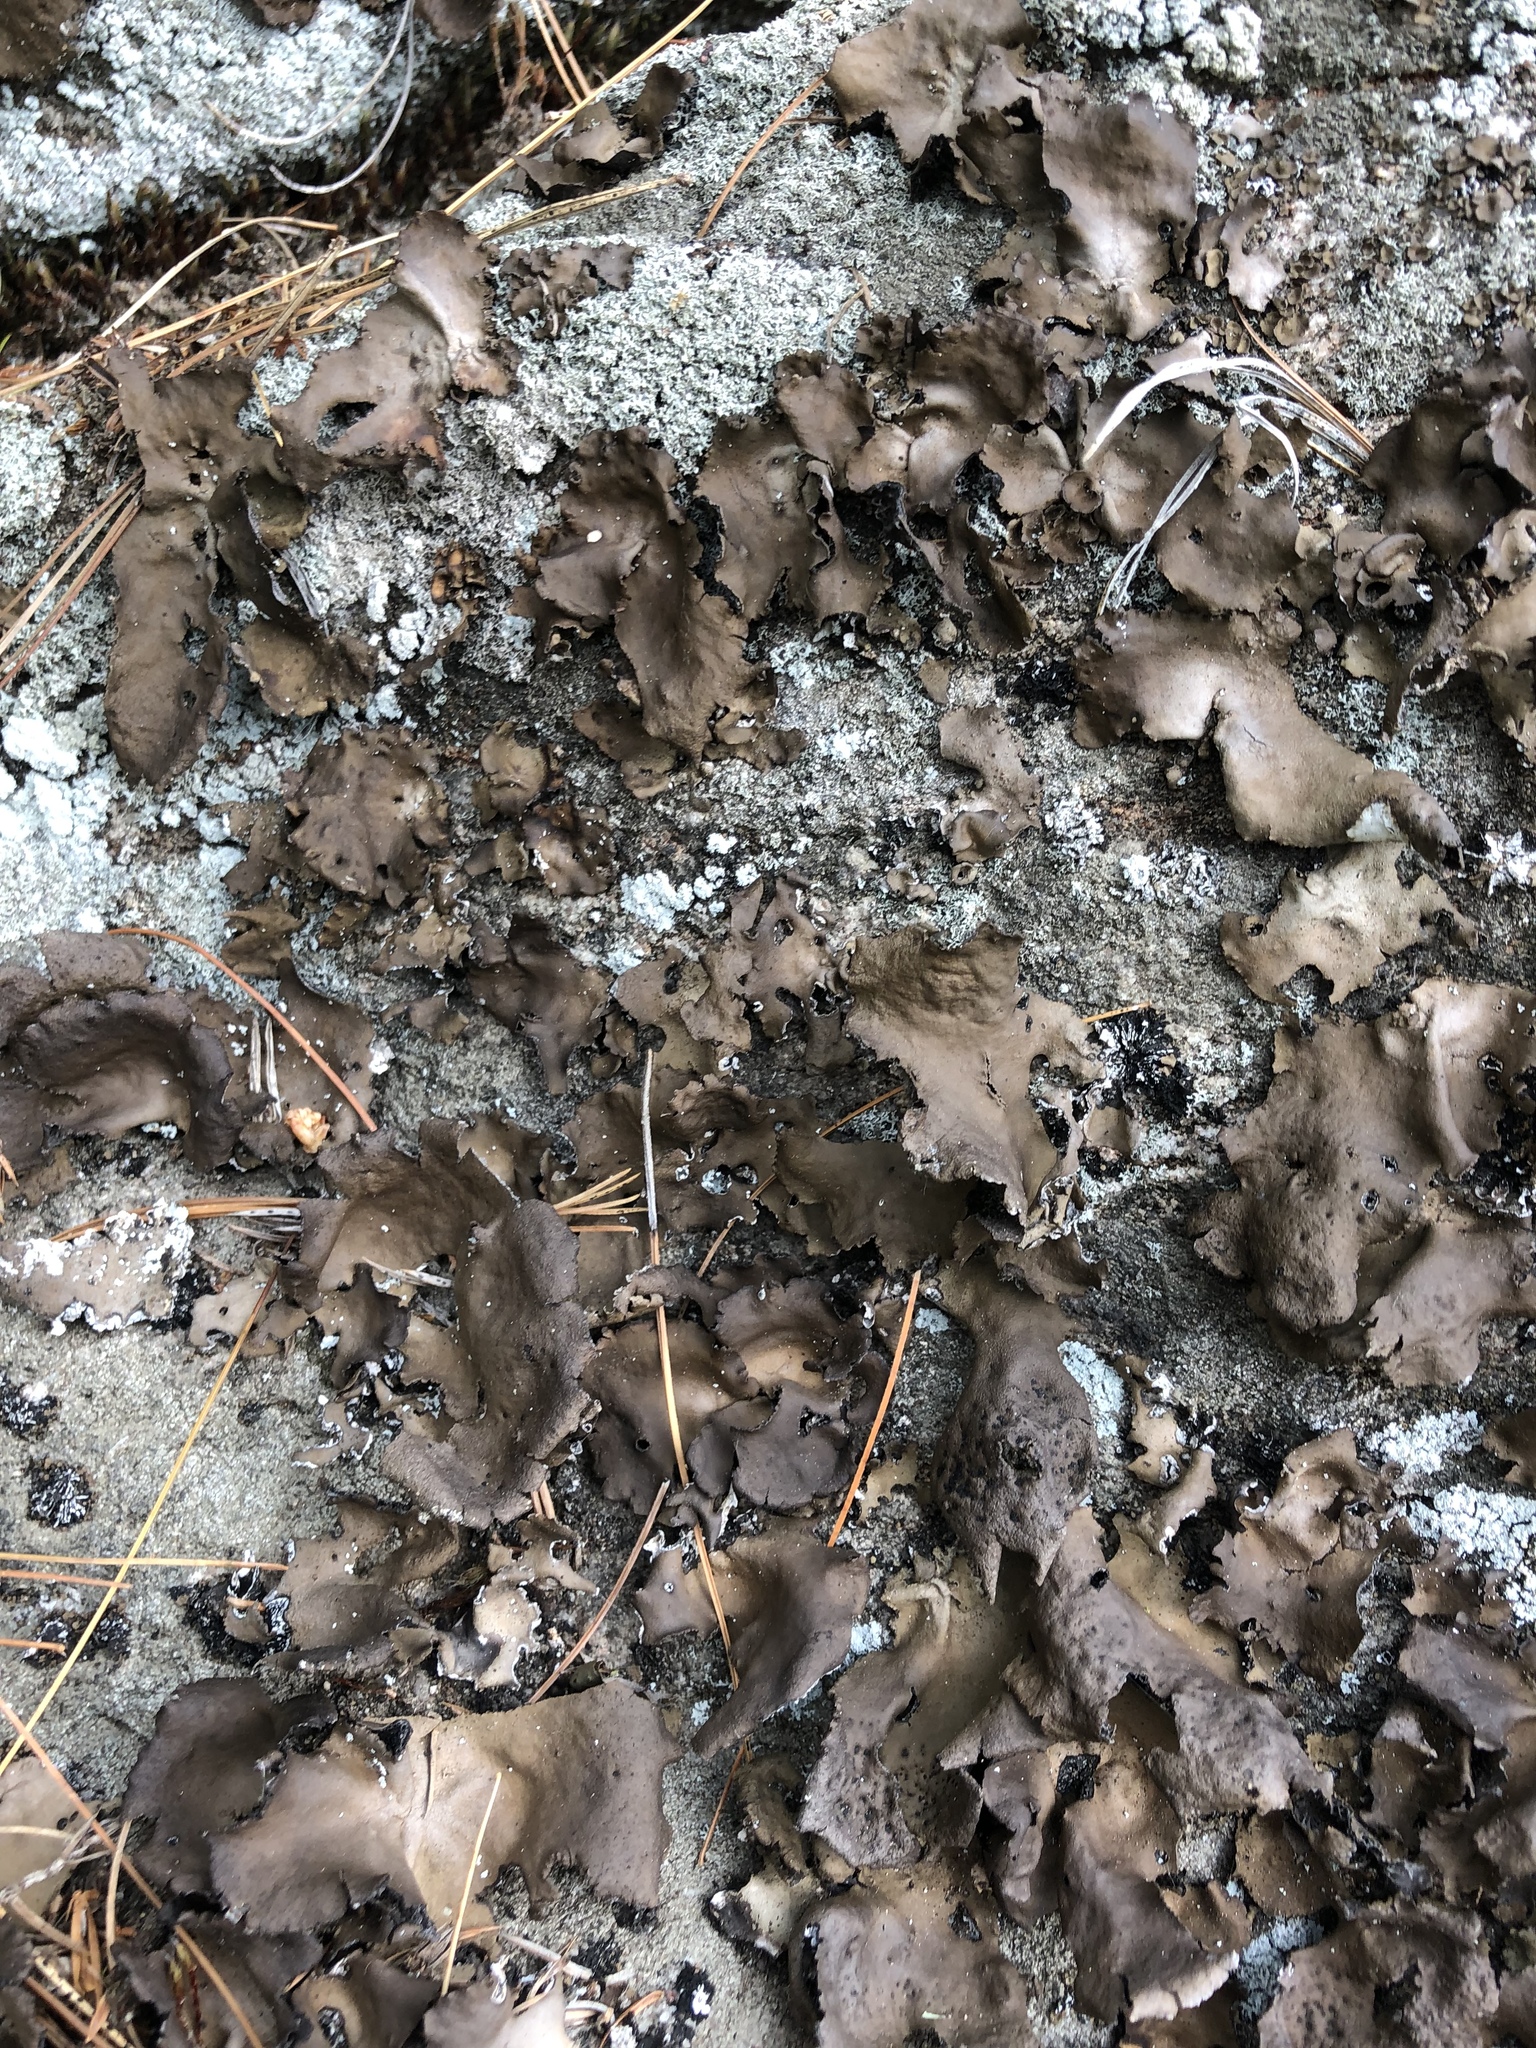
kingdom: Fungi
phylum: Ascomycota
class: Lecanoromycetes
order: Umbilicariales
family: Umbilicariaceae
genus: Umbilicaria
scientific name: Umbilicaria muhlenbergii
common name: Lesser rocktripe
